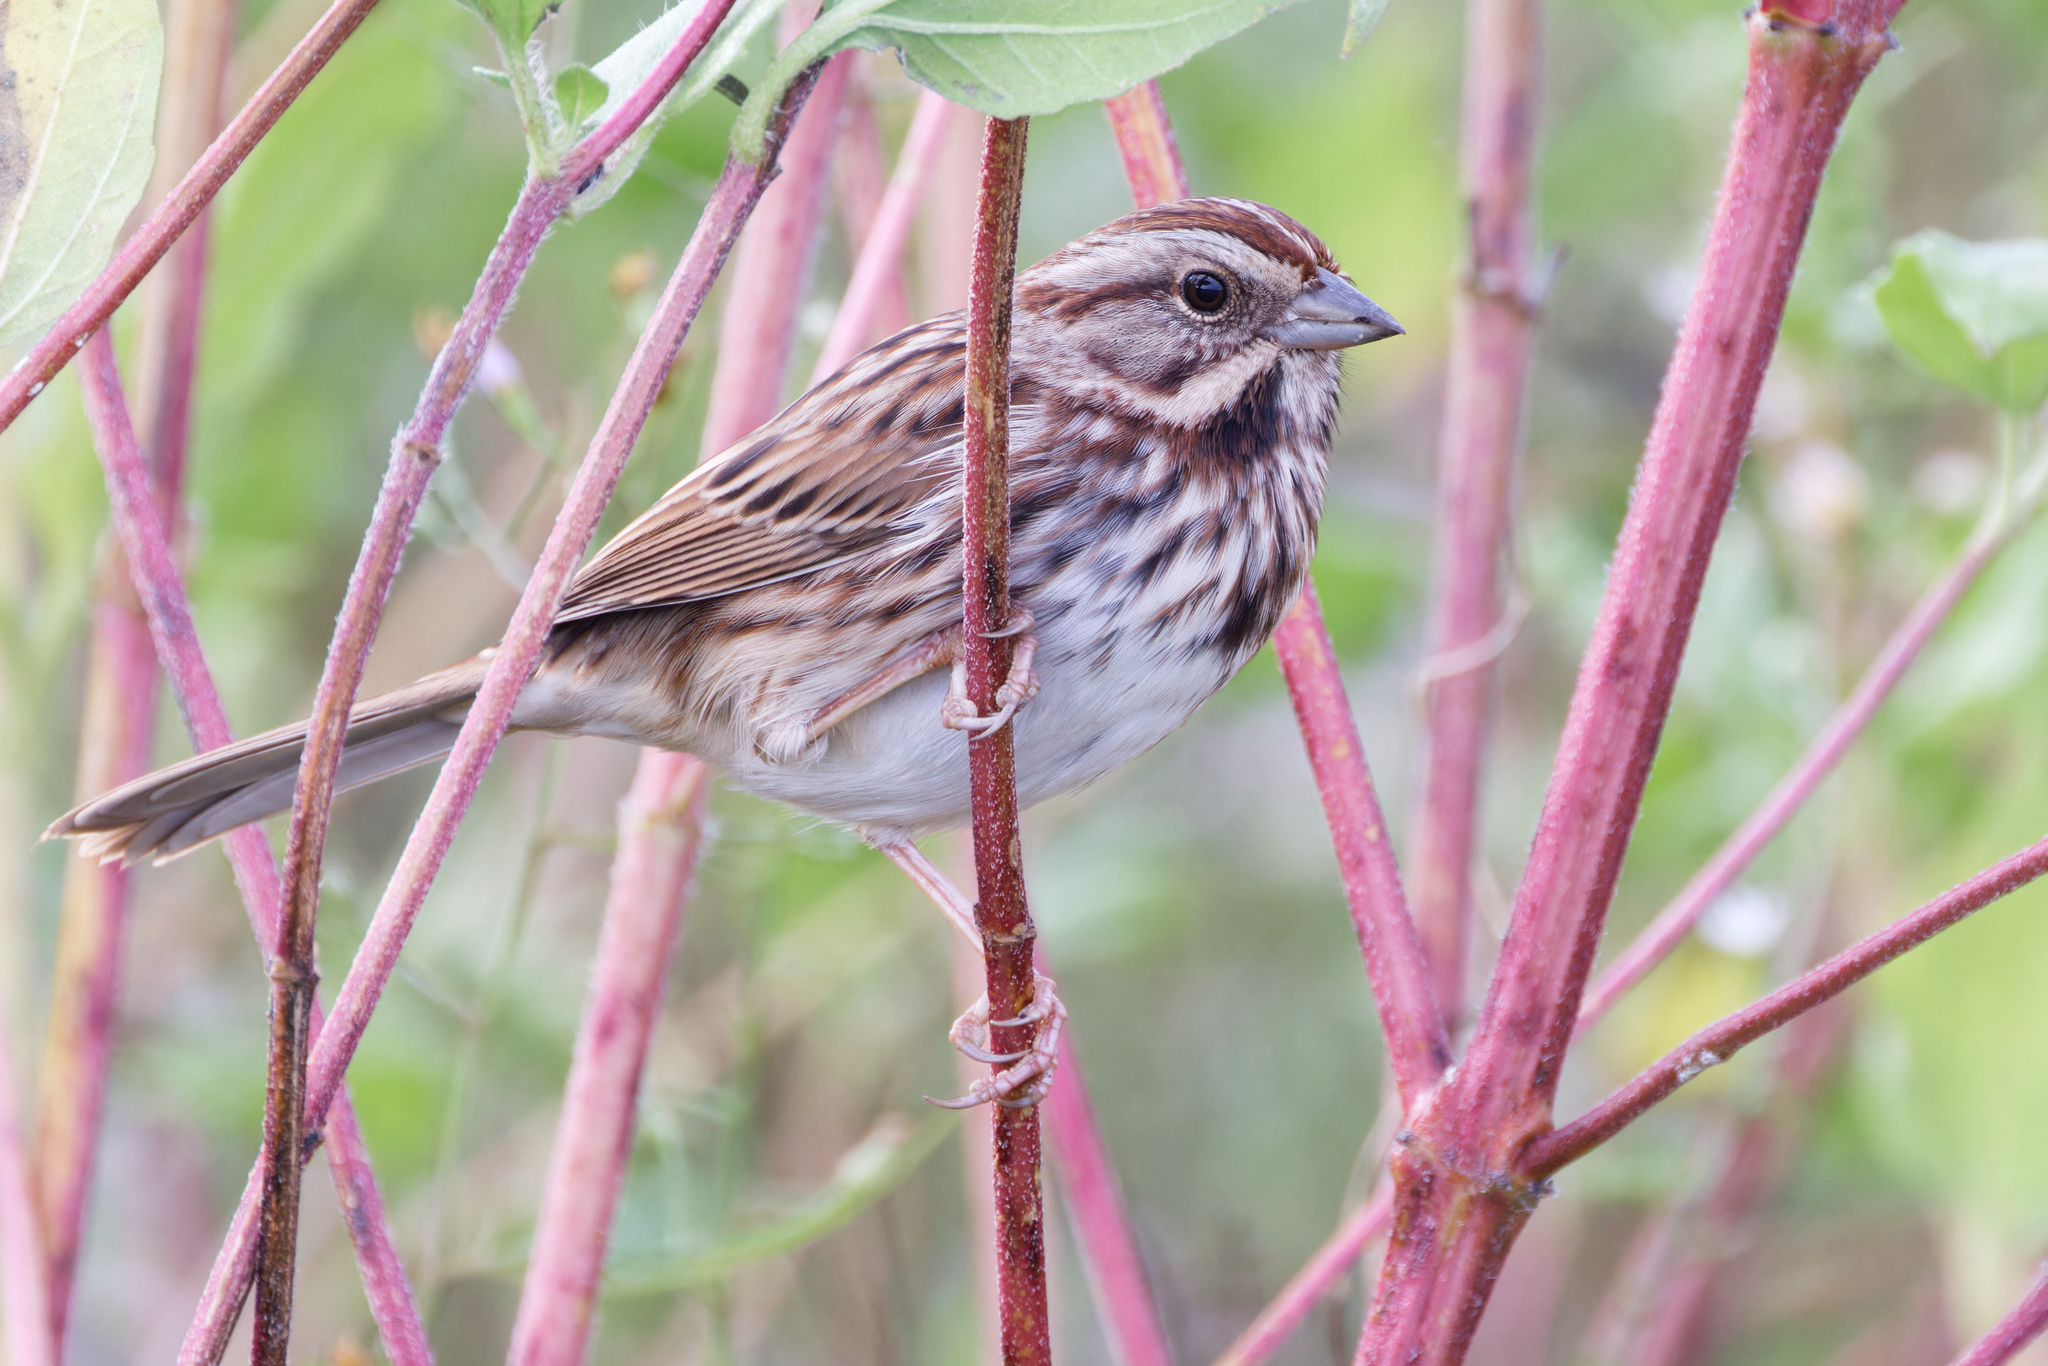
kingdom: Animalia
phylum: Chordata
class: Aves
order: Passeriformes
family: Passerellidae
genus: Melospiza
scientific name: Melospiza melodia
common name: Song sparrow
